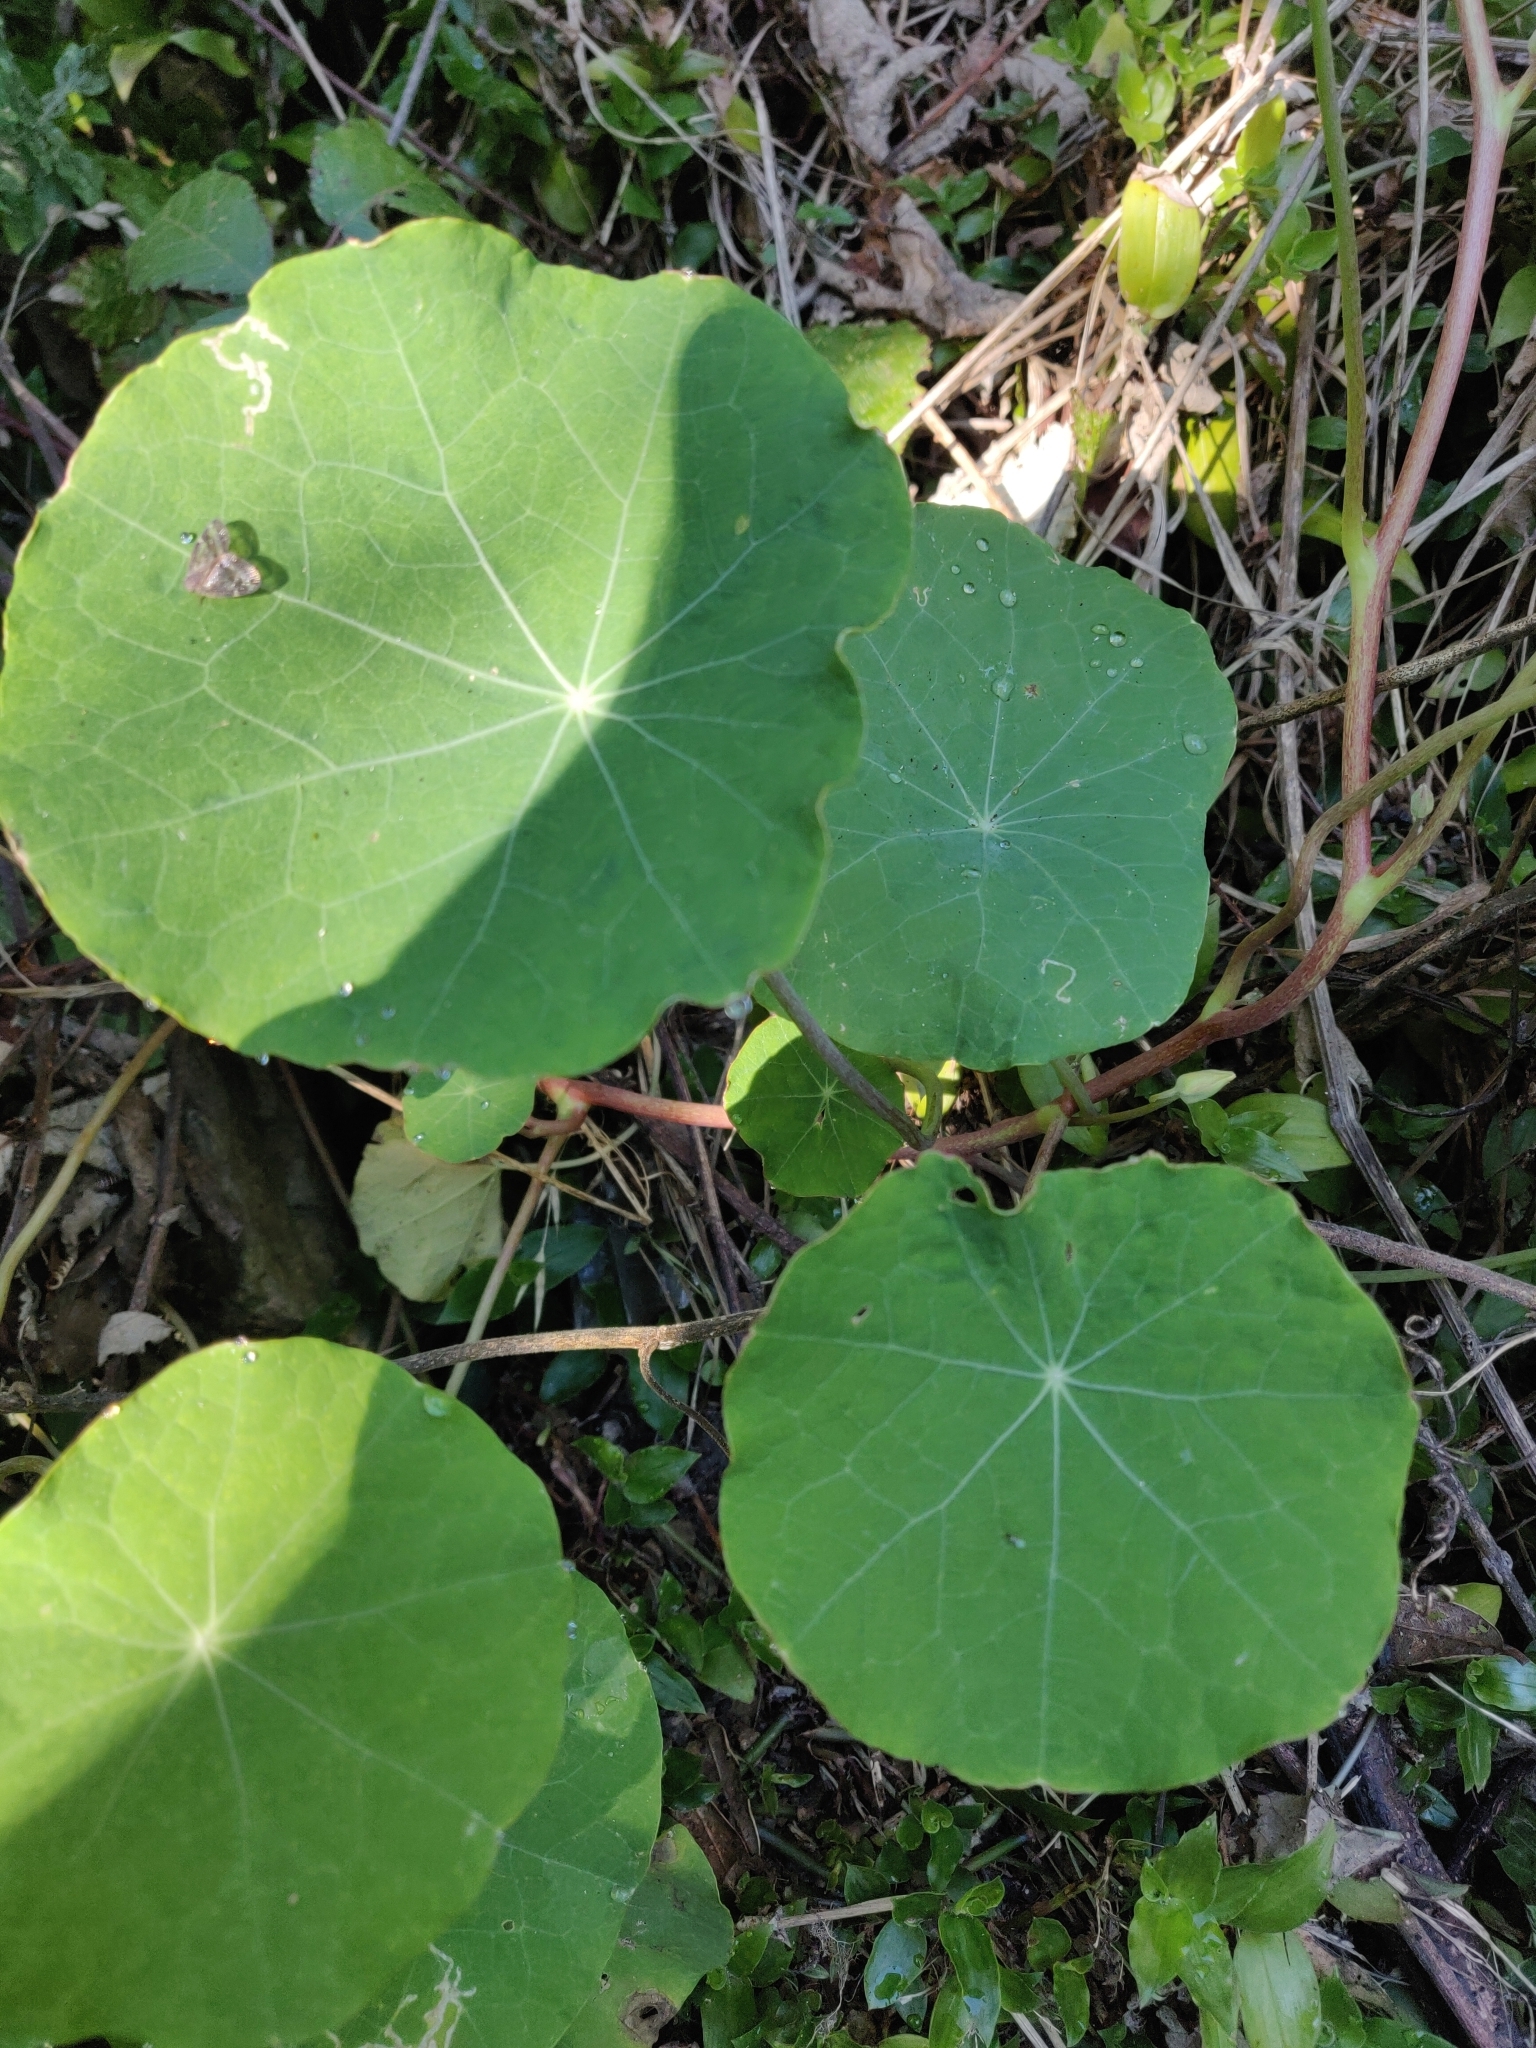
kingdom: Plantae
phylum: Tracheophyta
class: Magnoliopsida
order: Brassicales
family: Tropaeolaceae
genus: Tropaeolum
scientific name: Tropaeolum majus
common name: Nasturtium
